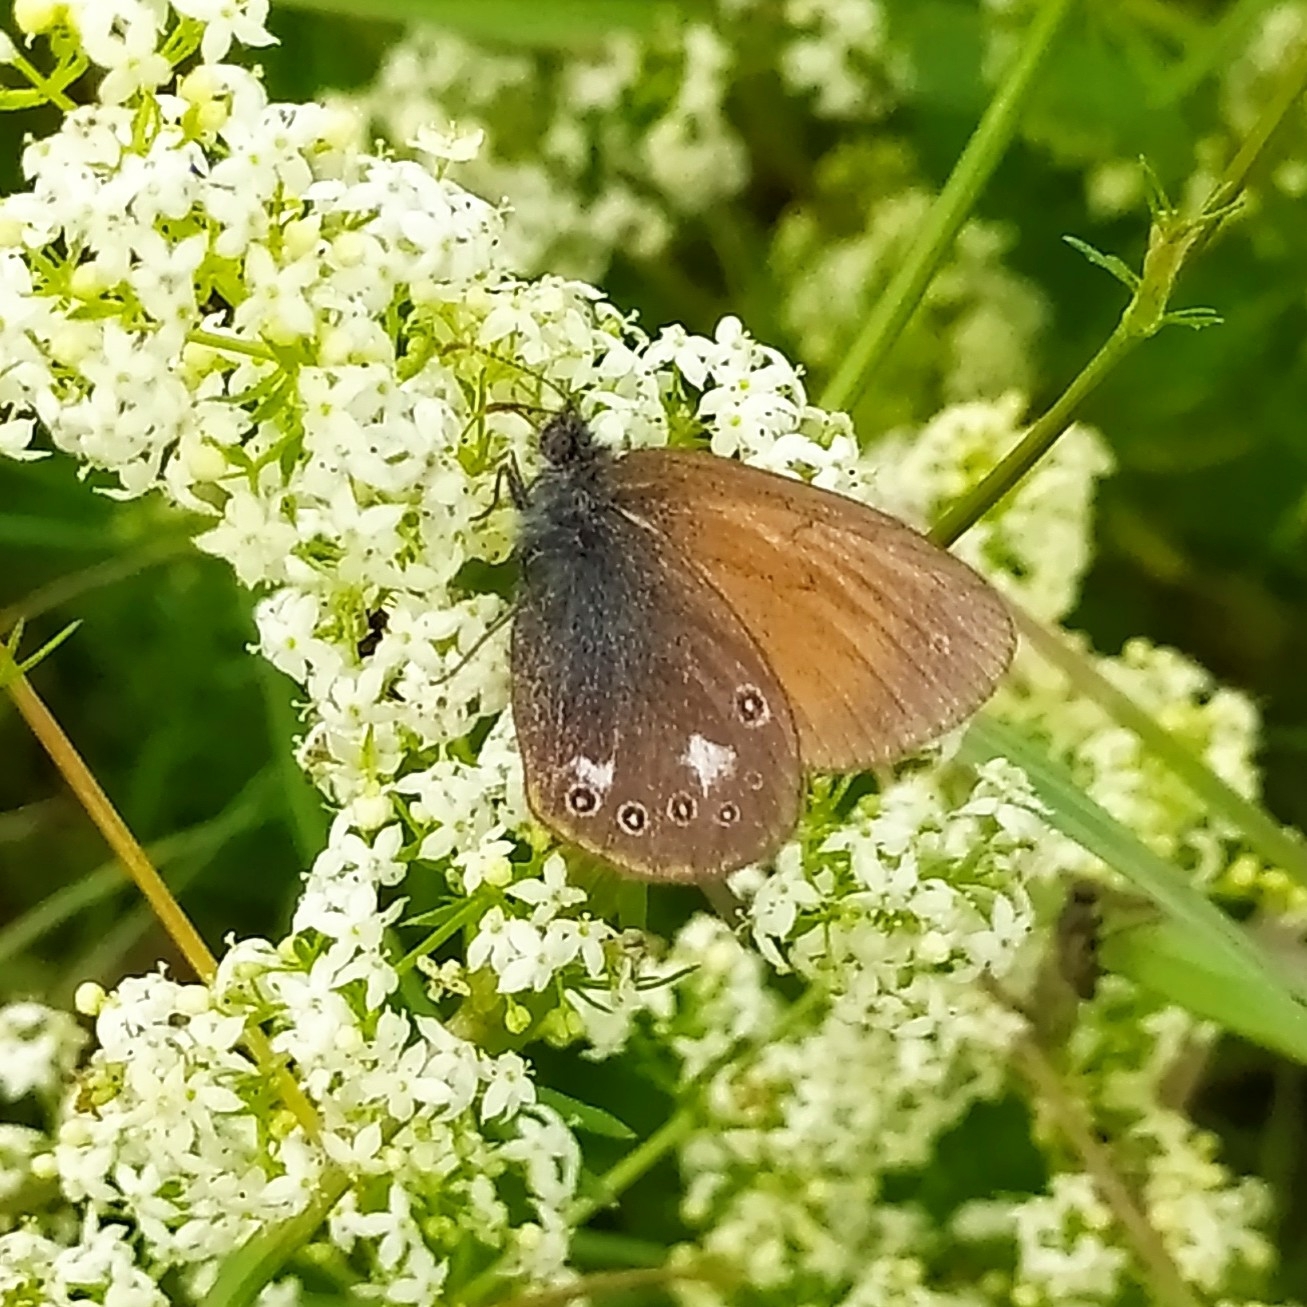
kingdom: Animalia
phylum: Arthropoda
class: Insecta
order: Lepidoptera
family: Nymphalidae
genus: Coenonympha
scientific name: Coenonympha iphis
